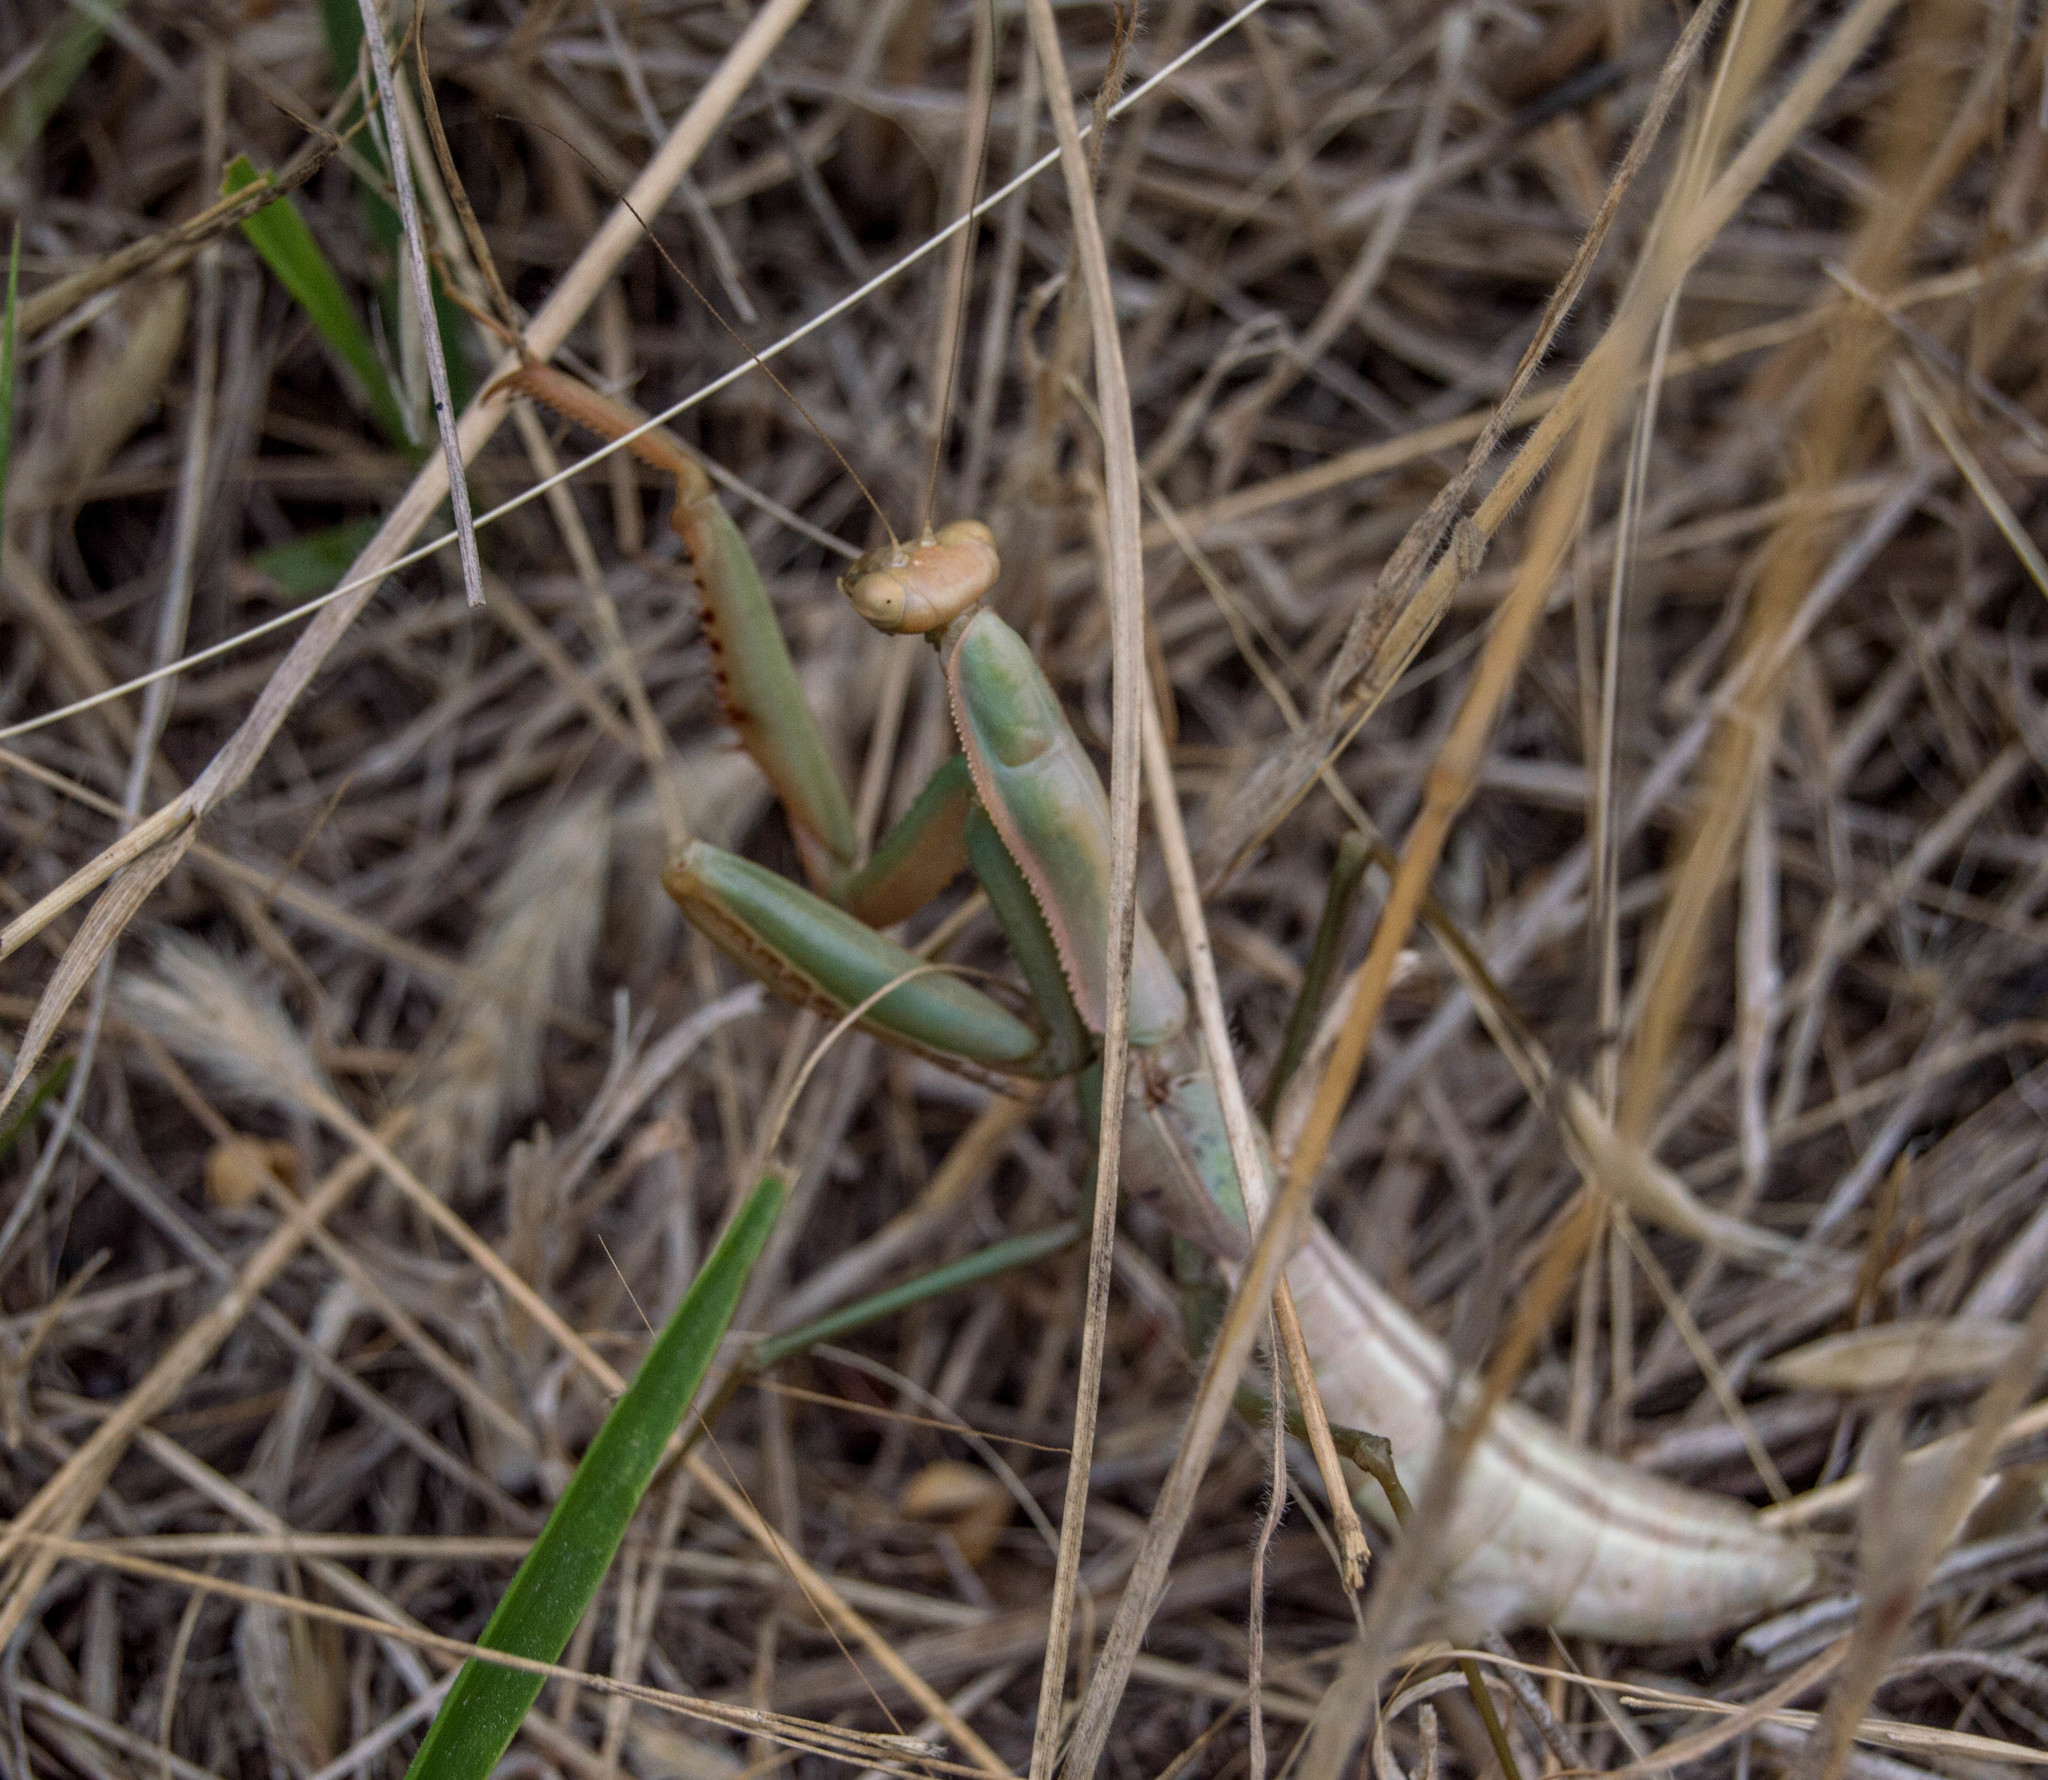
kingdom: Animalia
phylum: Arthropoda
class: Insecta
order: Mantodea
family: Coptopterygidae
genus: Coptopteryx
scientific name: Coptopteryx argentina
